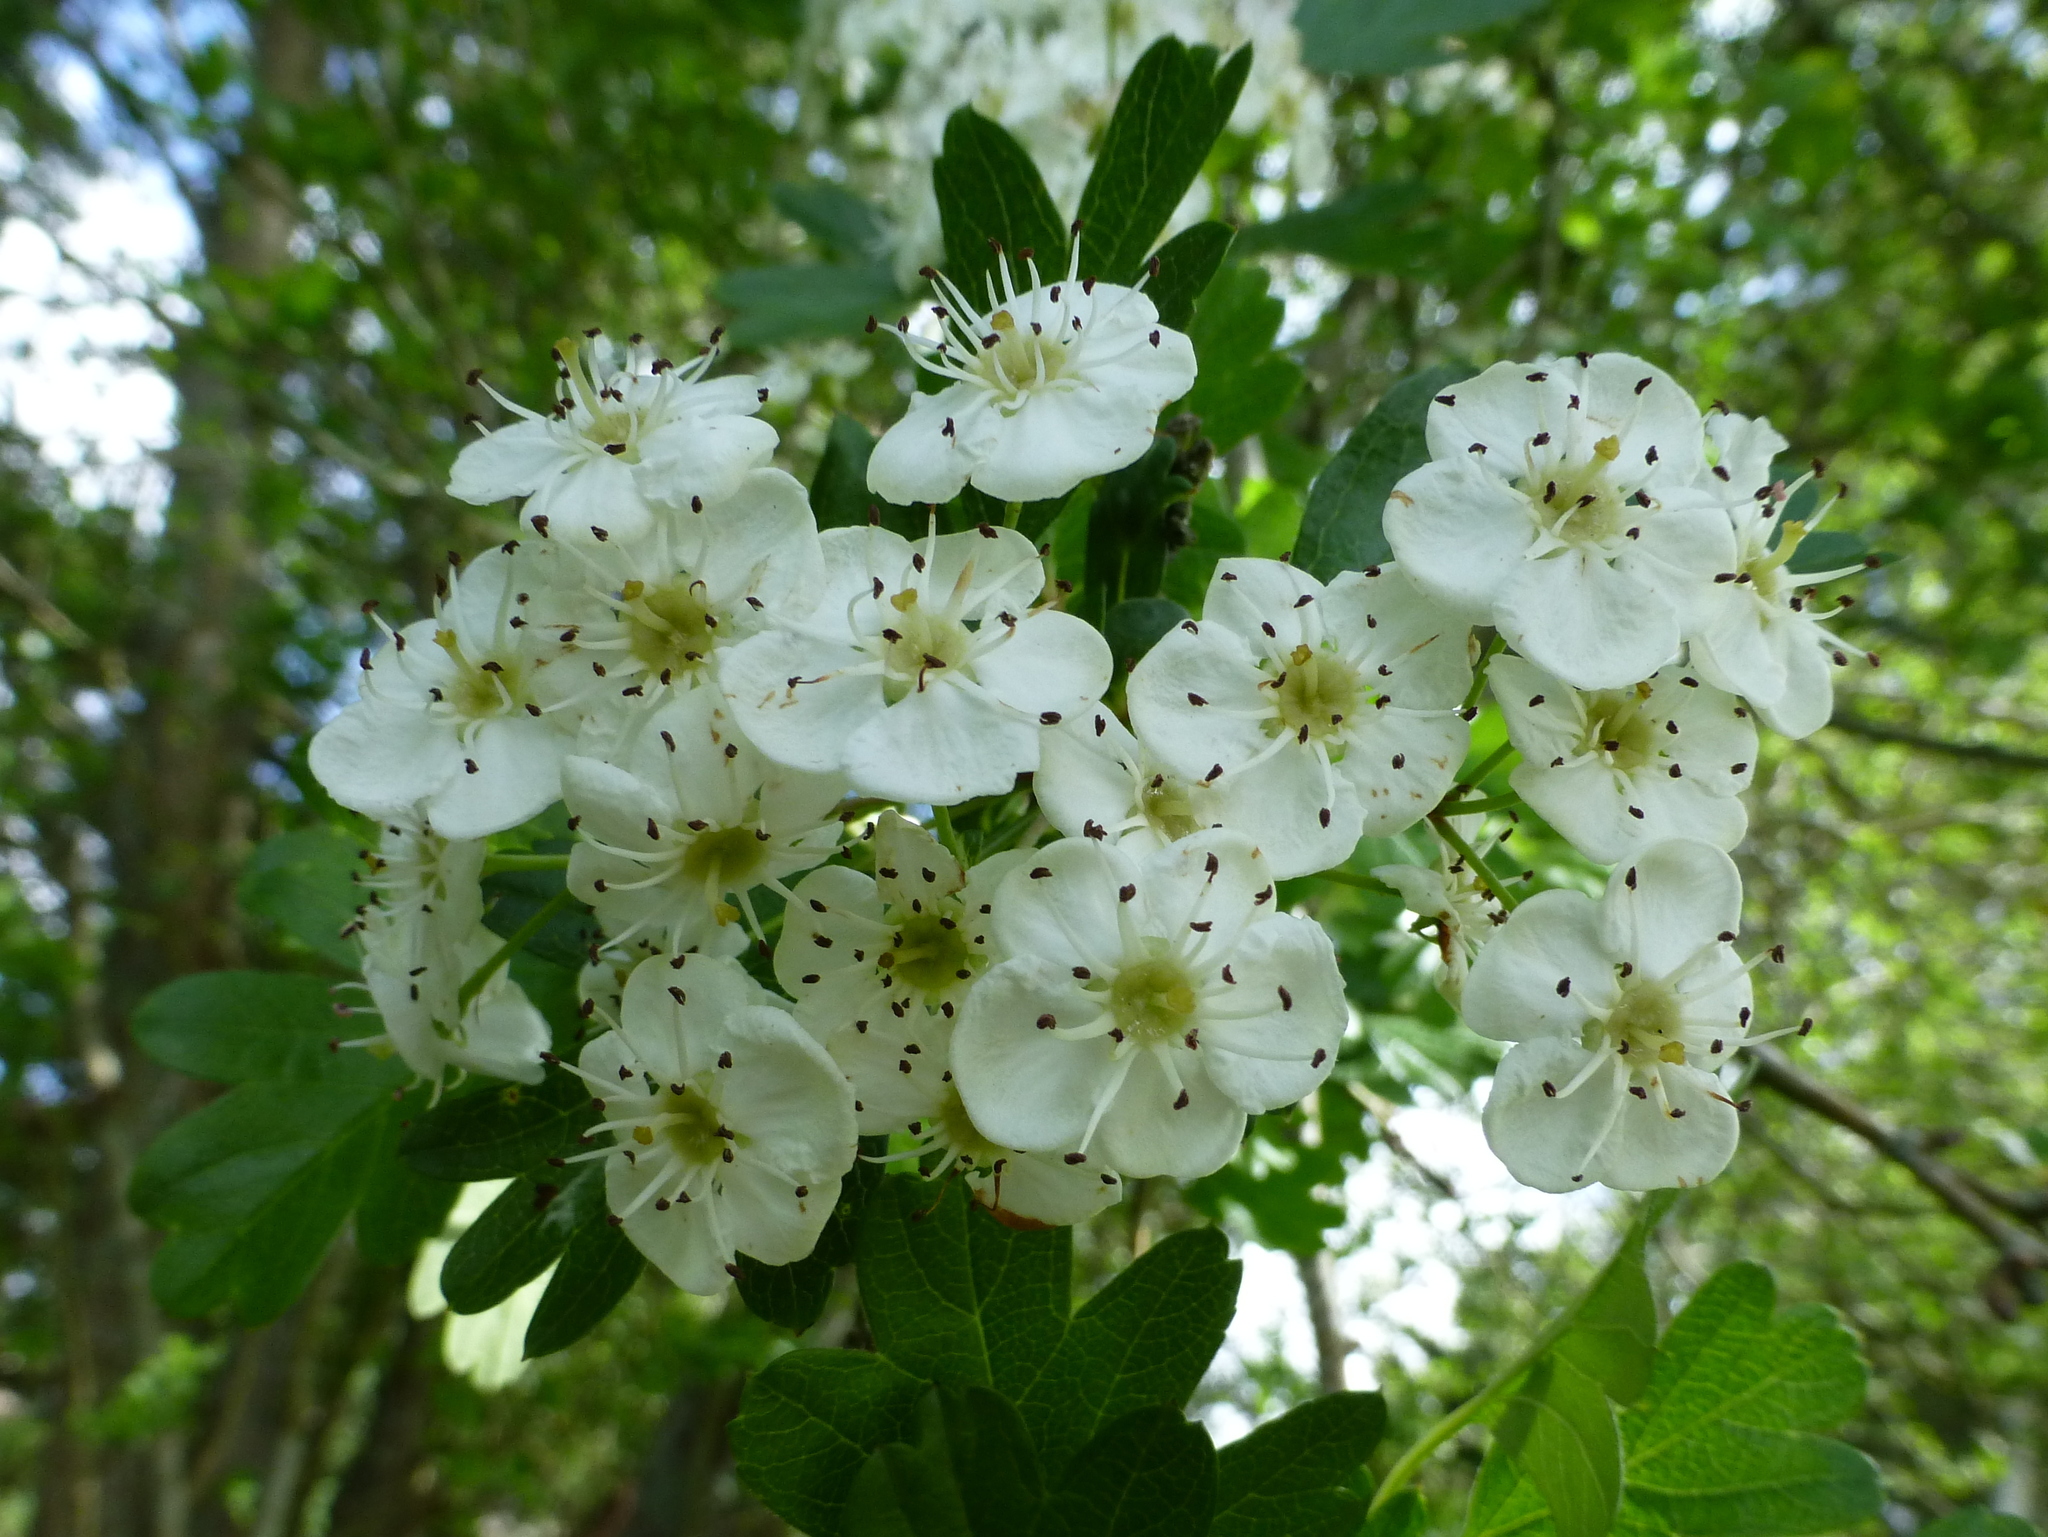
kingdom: Plantae
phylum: Tracheophyta
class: Magnoliopsida
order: Rosales
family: Rosaceae
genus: Crataegus
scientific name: Crataegus monogyna
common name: Hawthorn
